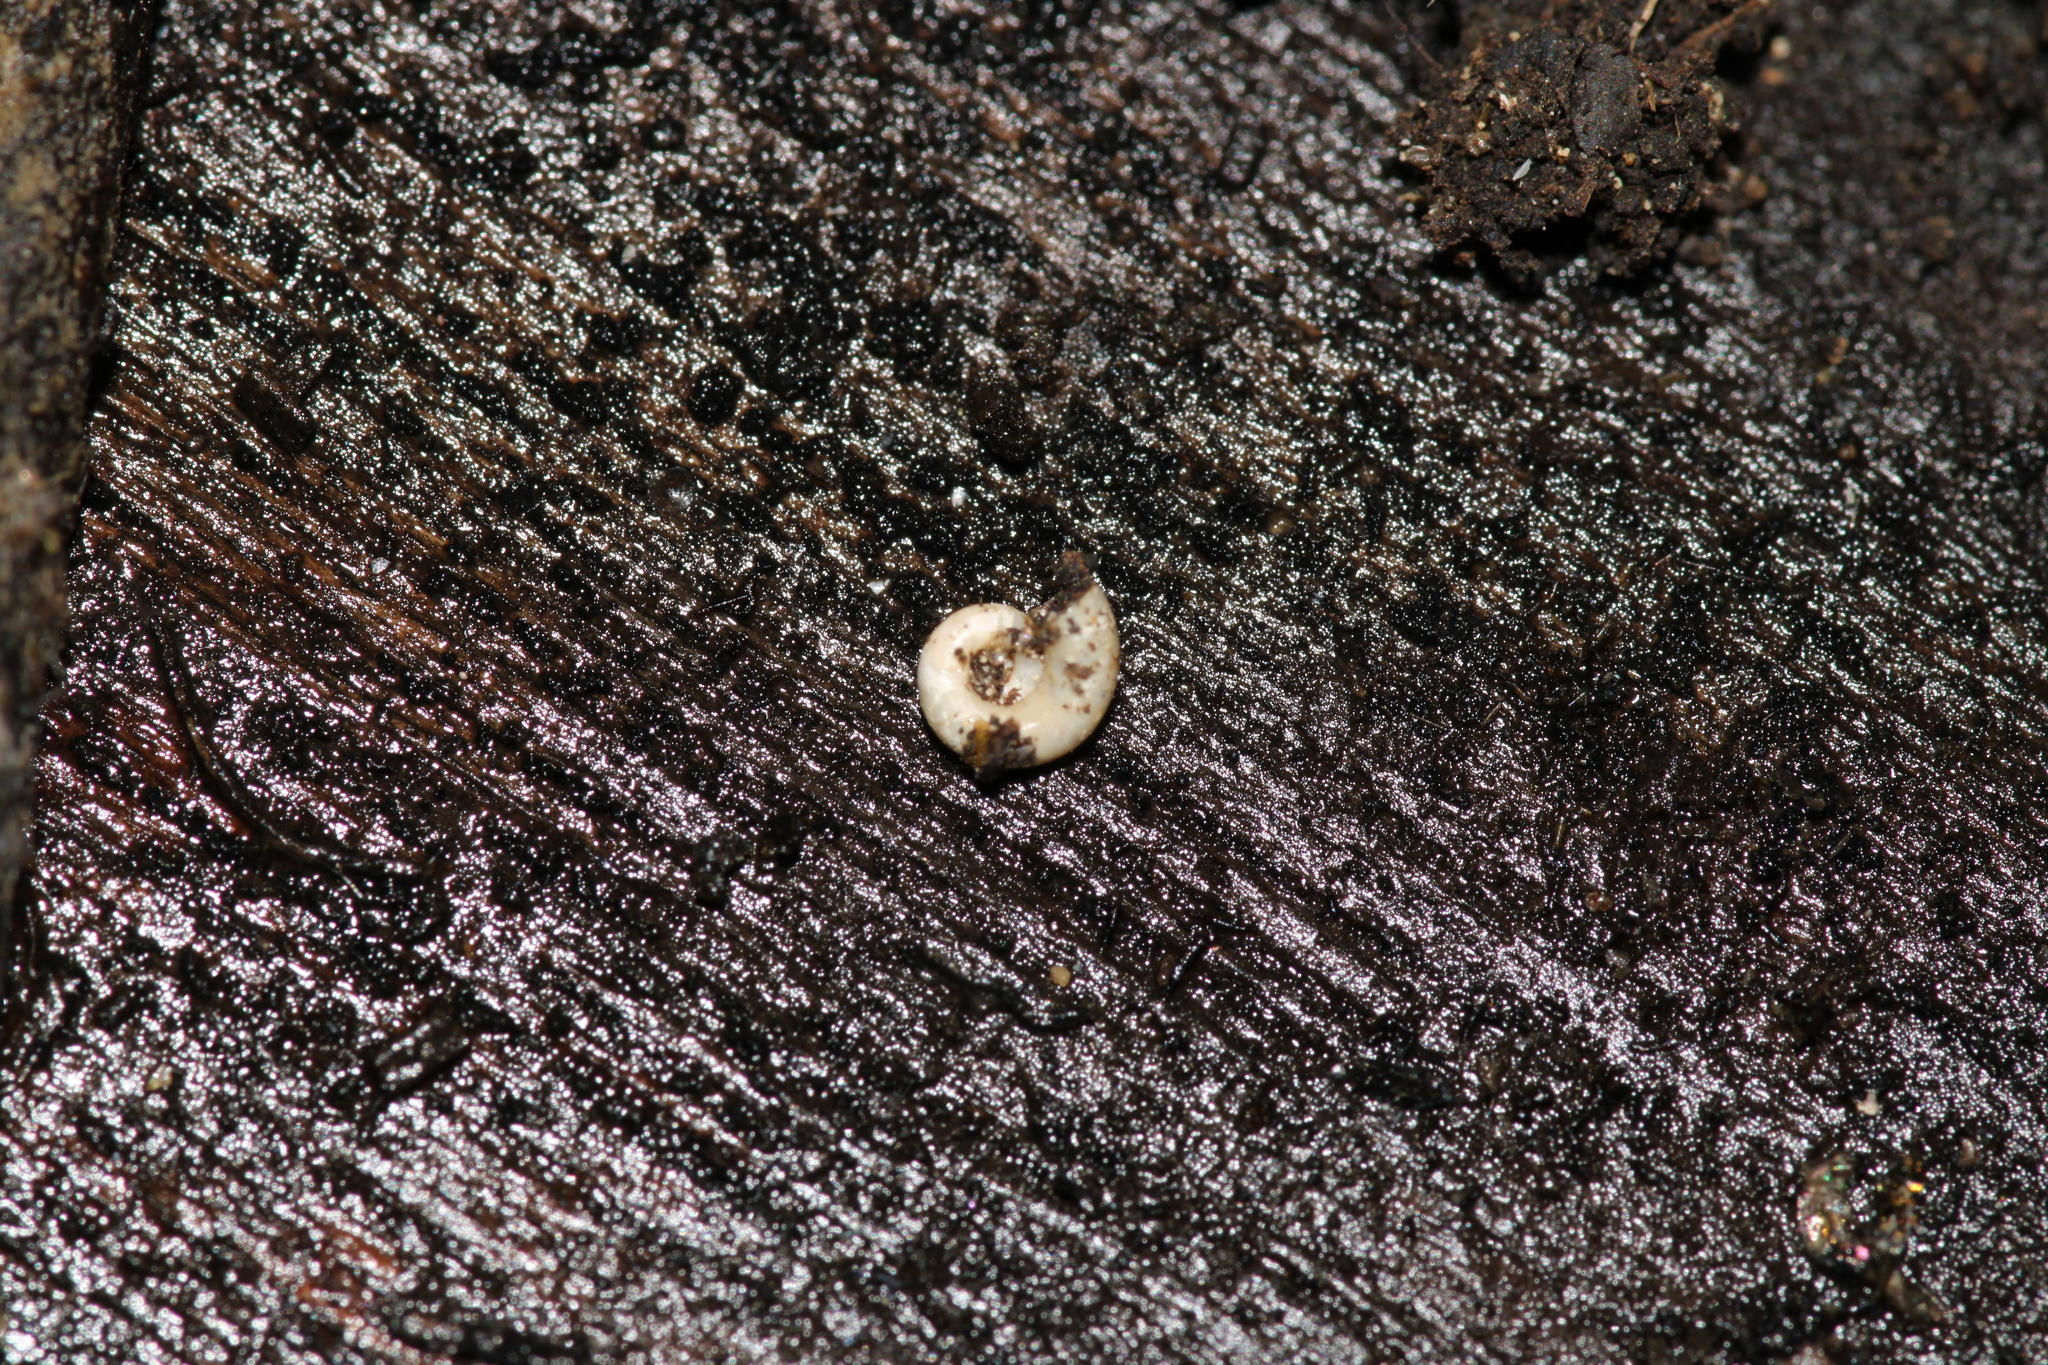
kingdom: Animalia
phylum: Mollusca
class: Gastropoda
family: Valvatidae
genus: Valvata
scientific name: Valvata cristata
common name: Flat valve snail
